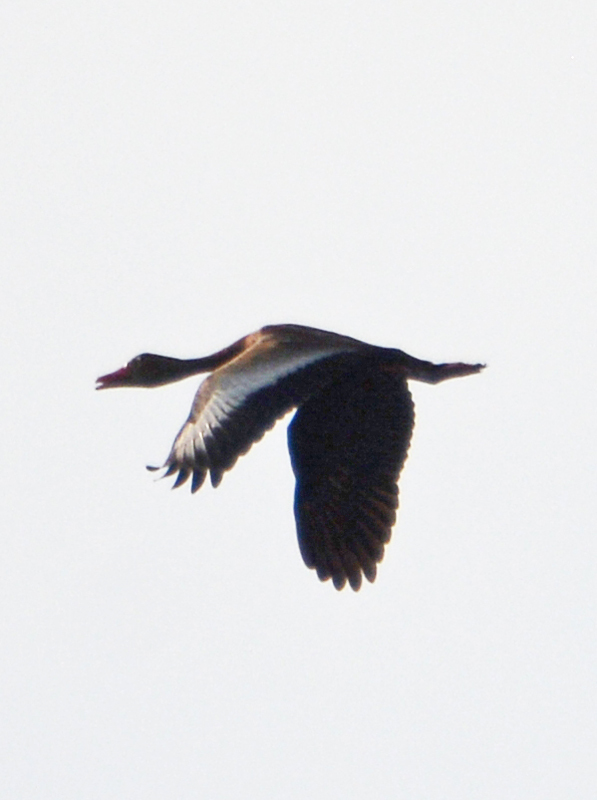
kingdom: Animalia
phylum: Chordata
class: Aves
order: Anseriformes
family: Anatidae
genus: Dendrocygna
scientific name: Dendrocygna autumnalis
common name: Black-bellied whistling duck
